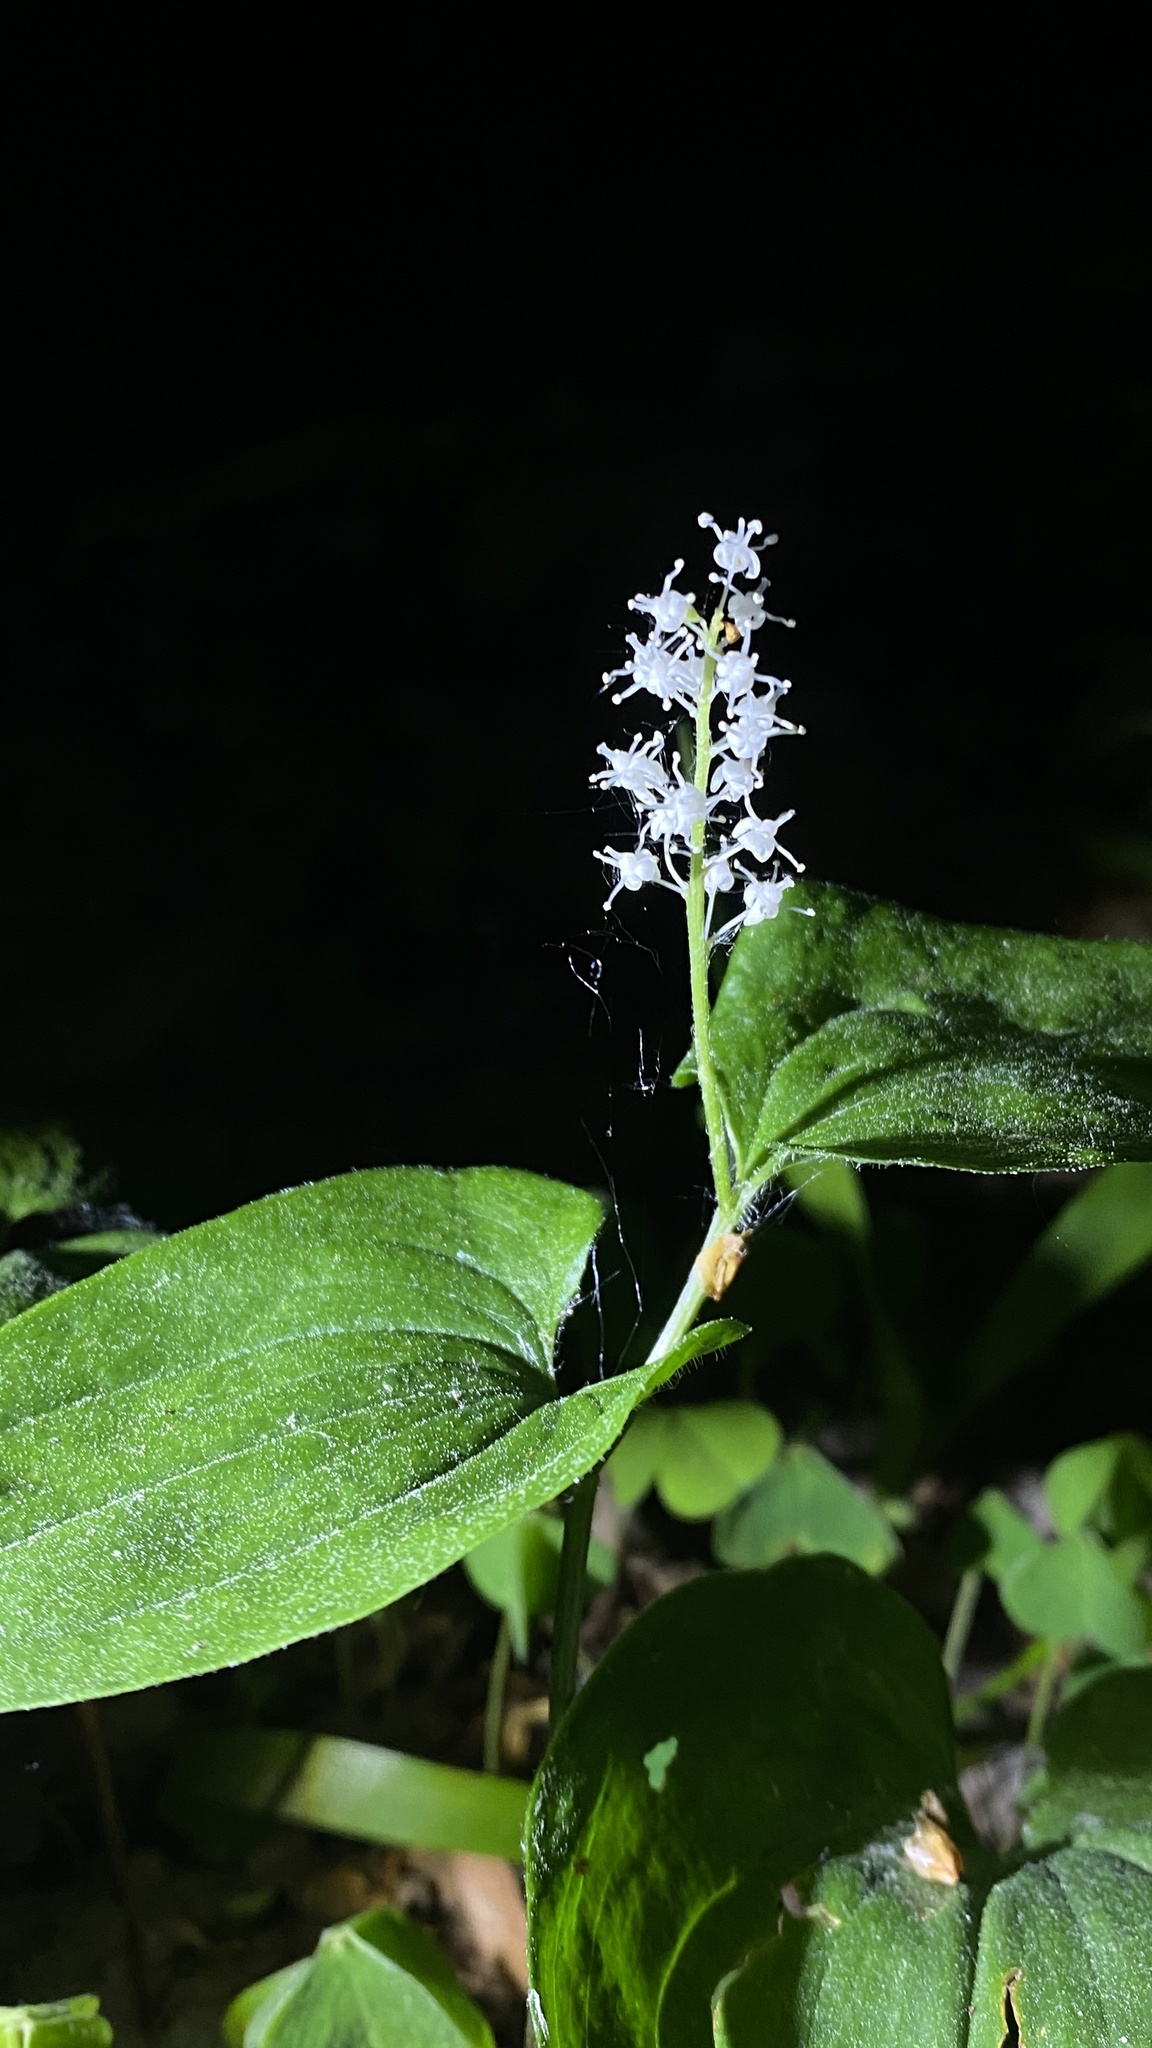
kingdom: Plantae
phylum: Tracheophyta
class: Liliopsida
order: Asparagales
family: Asparagaceae
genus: Maianthemum
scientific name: Maianthemum bifolium
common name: May lily
